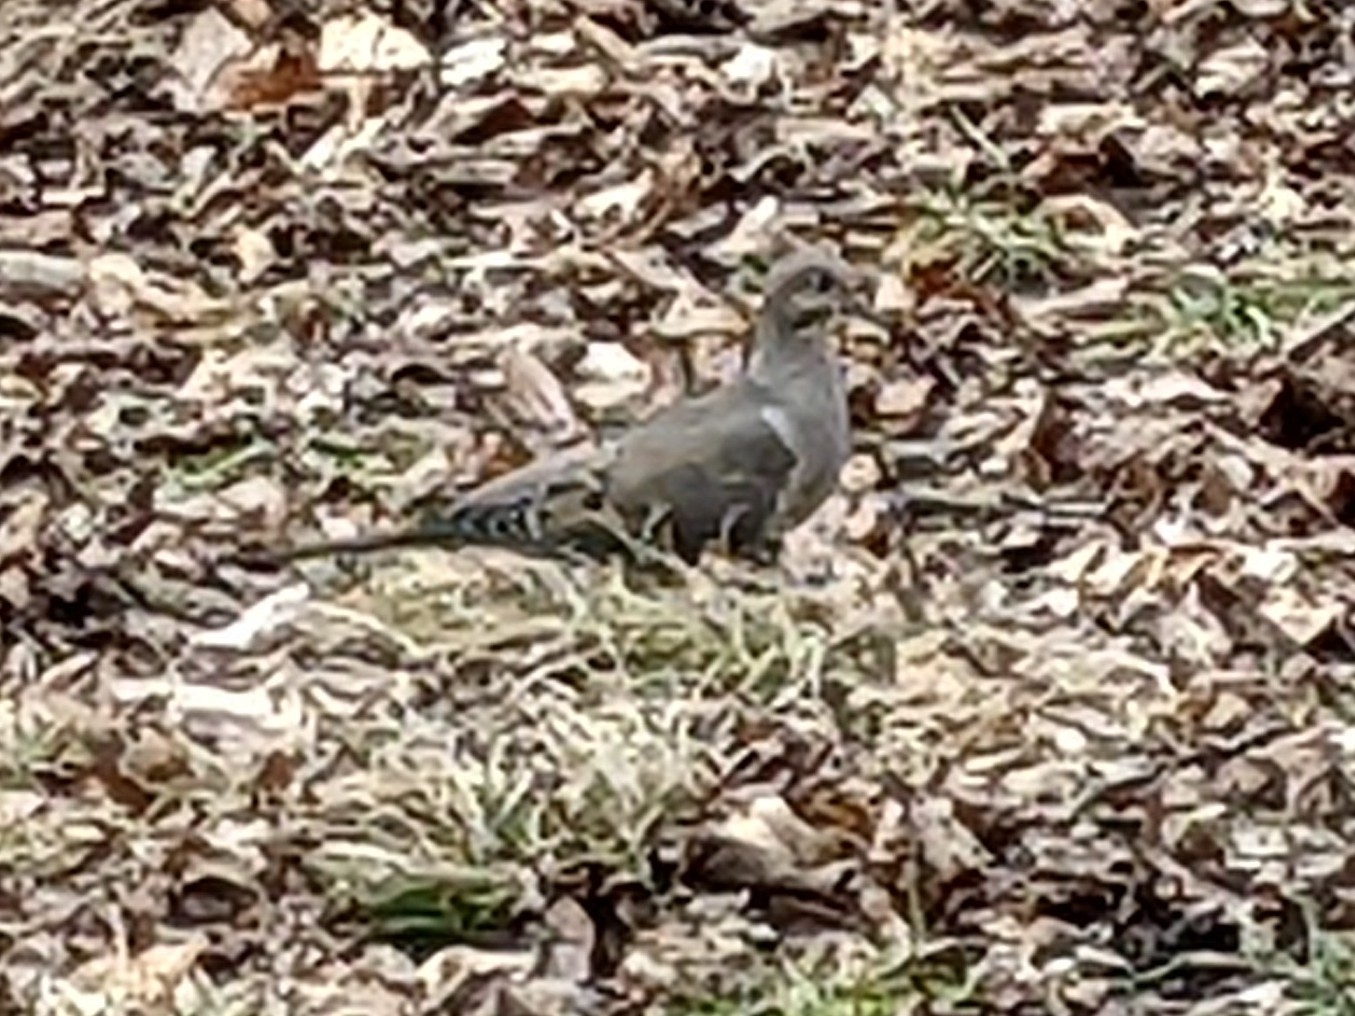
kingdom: Animalia
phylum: Chordata
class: Aves
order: Columbiformes
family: Columbidae
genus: Zenaida
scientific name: Zenaida macroura
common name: Mourning dove
